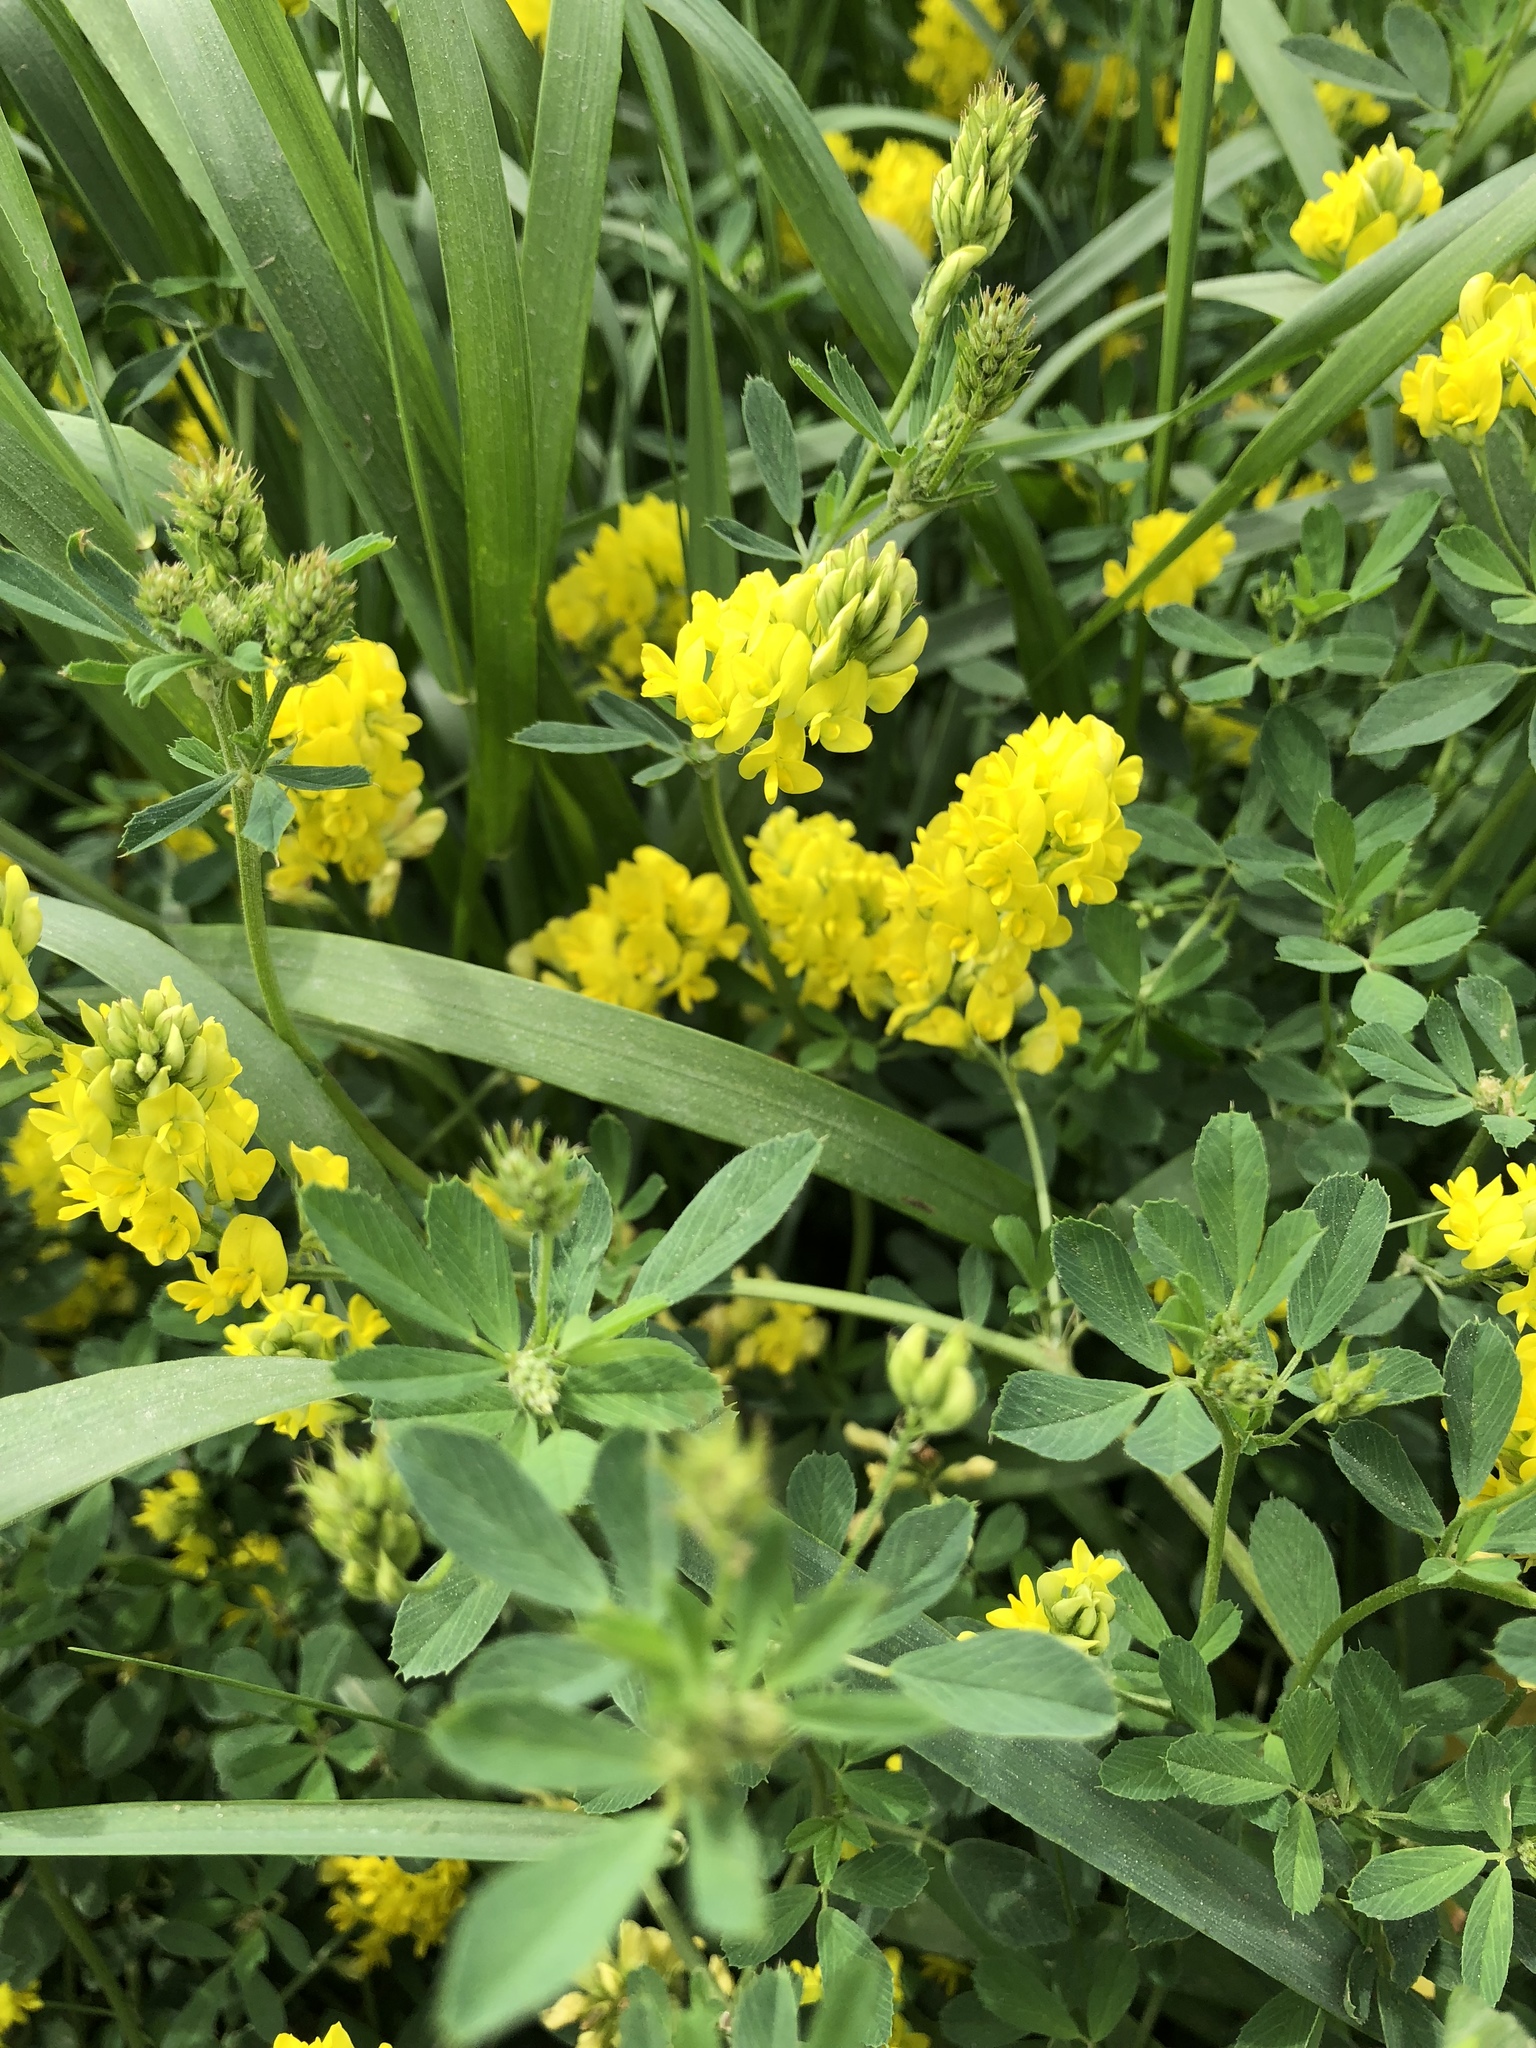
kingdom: Plantae
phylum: Tracheophyta
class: Magnoliopsida
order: Fabales
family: Fabaceae
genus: Medicago
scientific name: Medicago falcata
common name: Sickle medick
